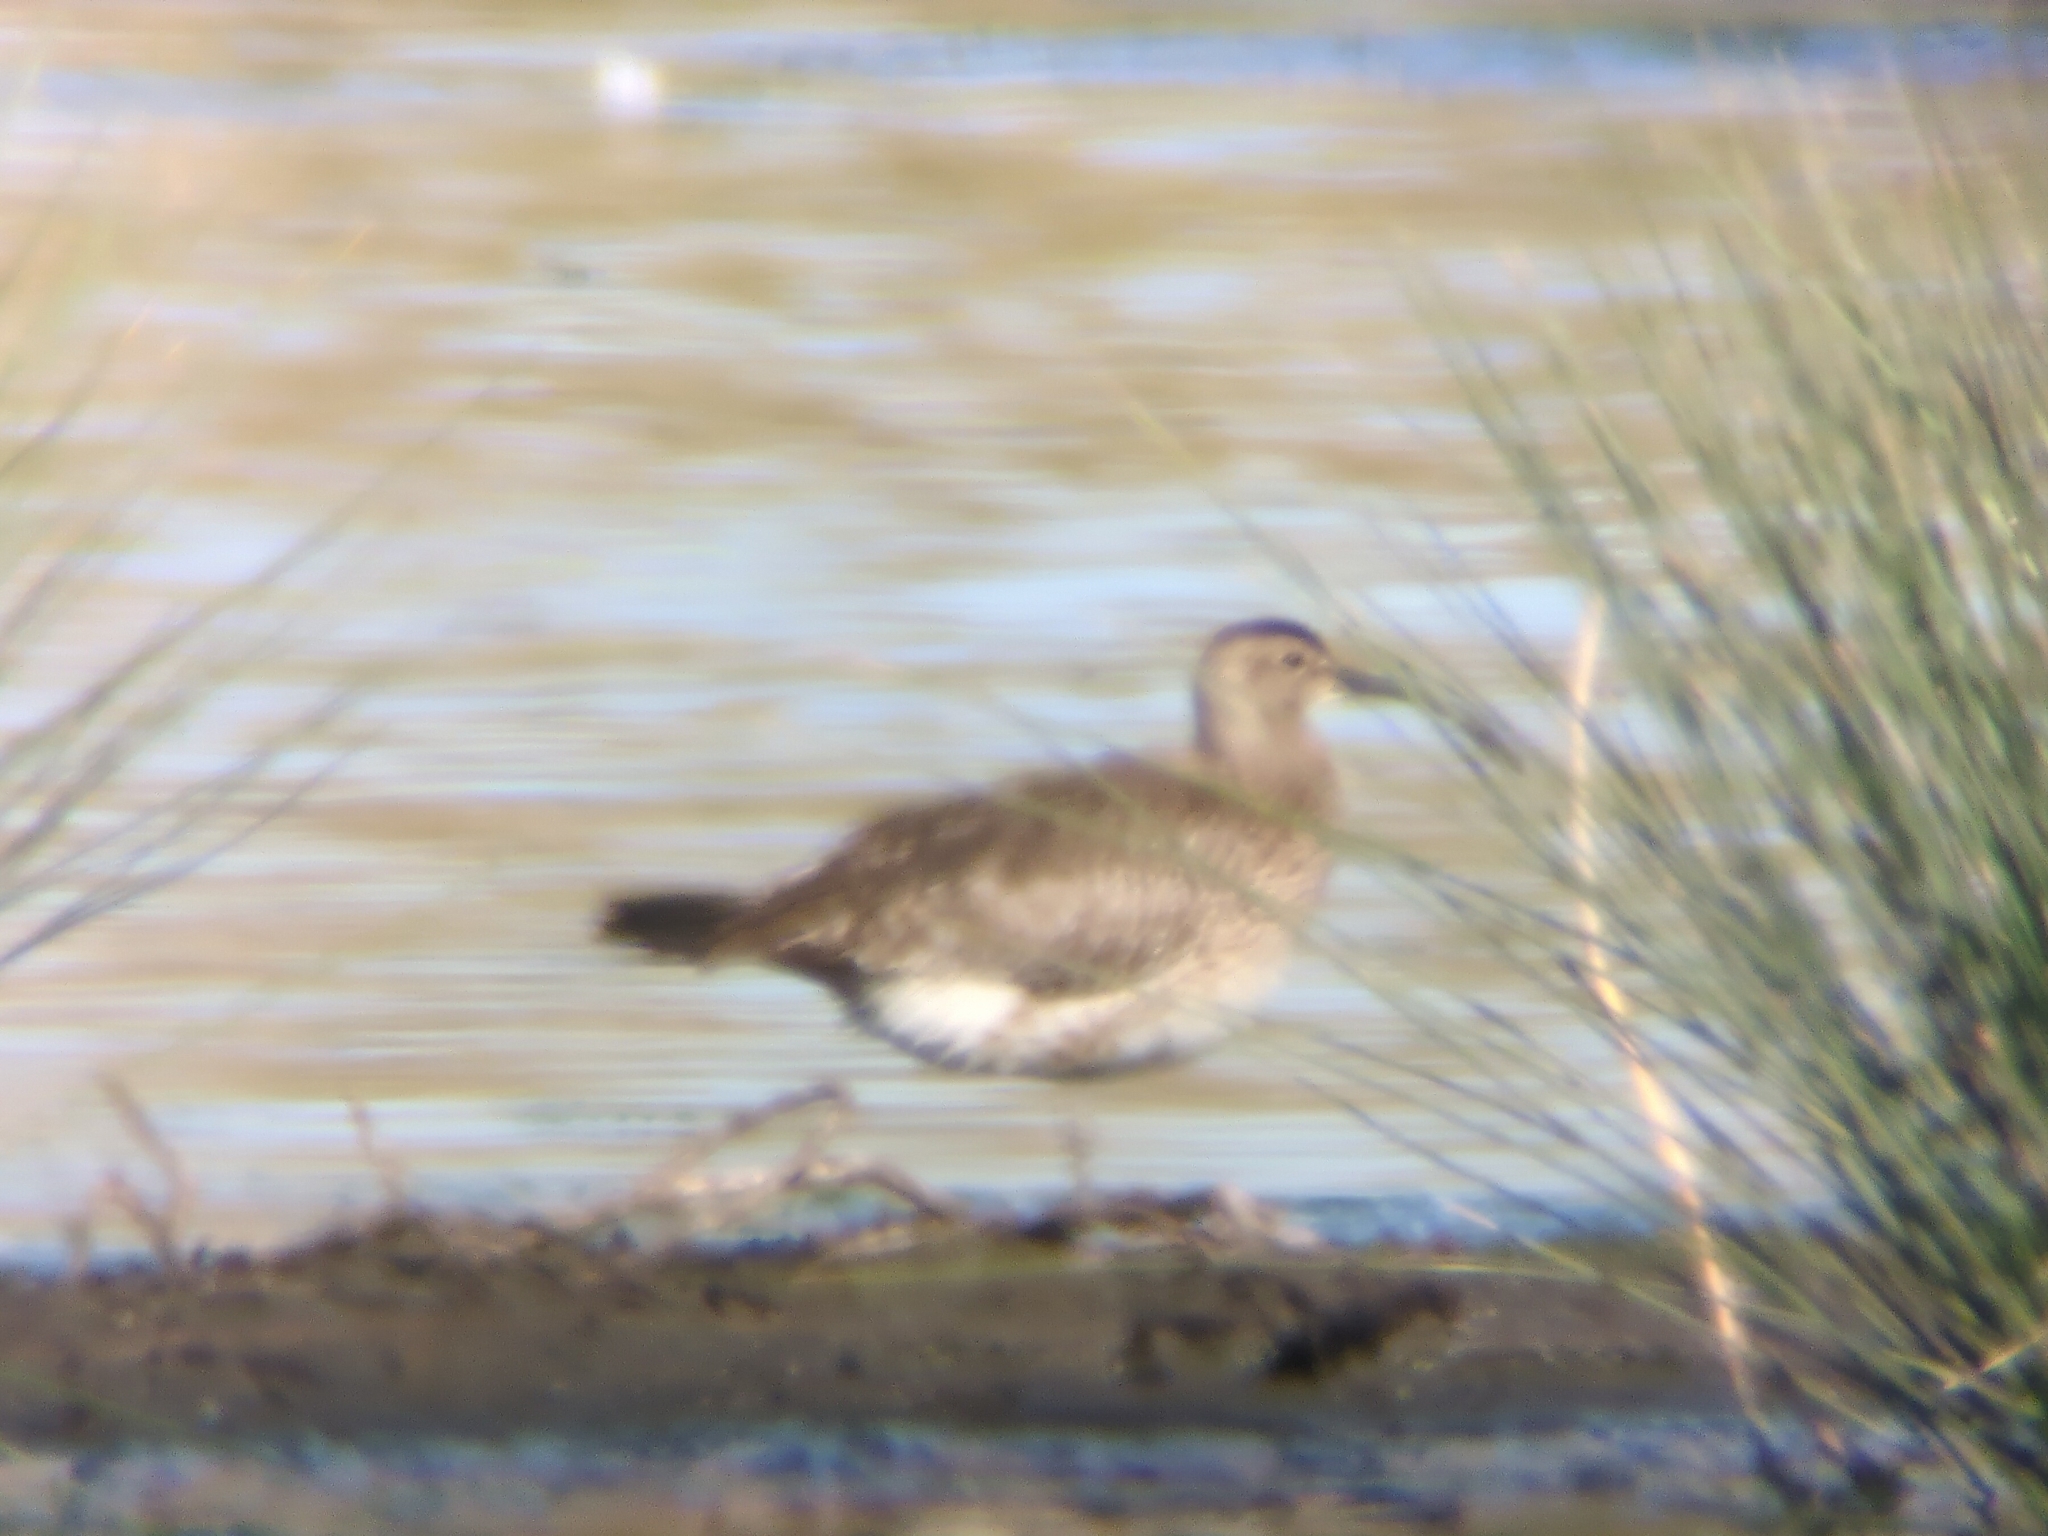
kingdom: Animalia
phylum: Chordata
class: Aves
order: Charadriiformes
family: Scolopacidae
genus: Numenius
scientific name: Numenius phaeopus
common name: Whimbrel
